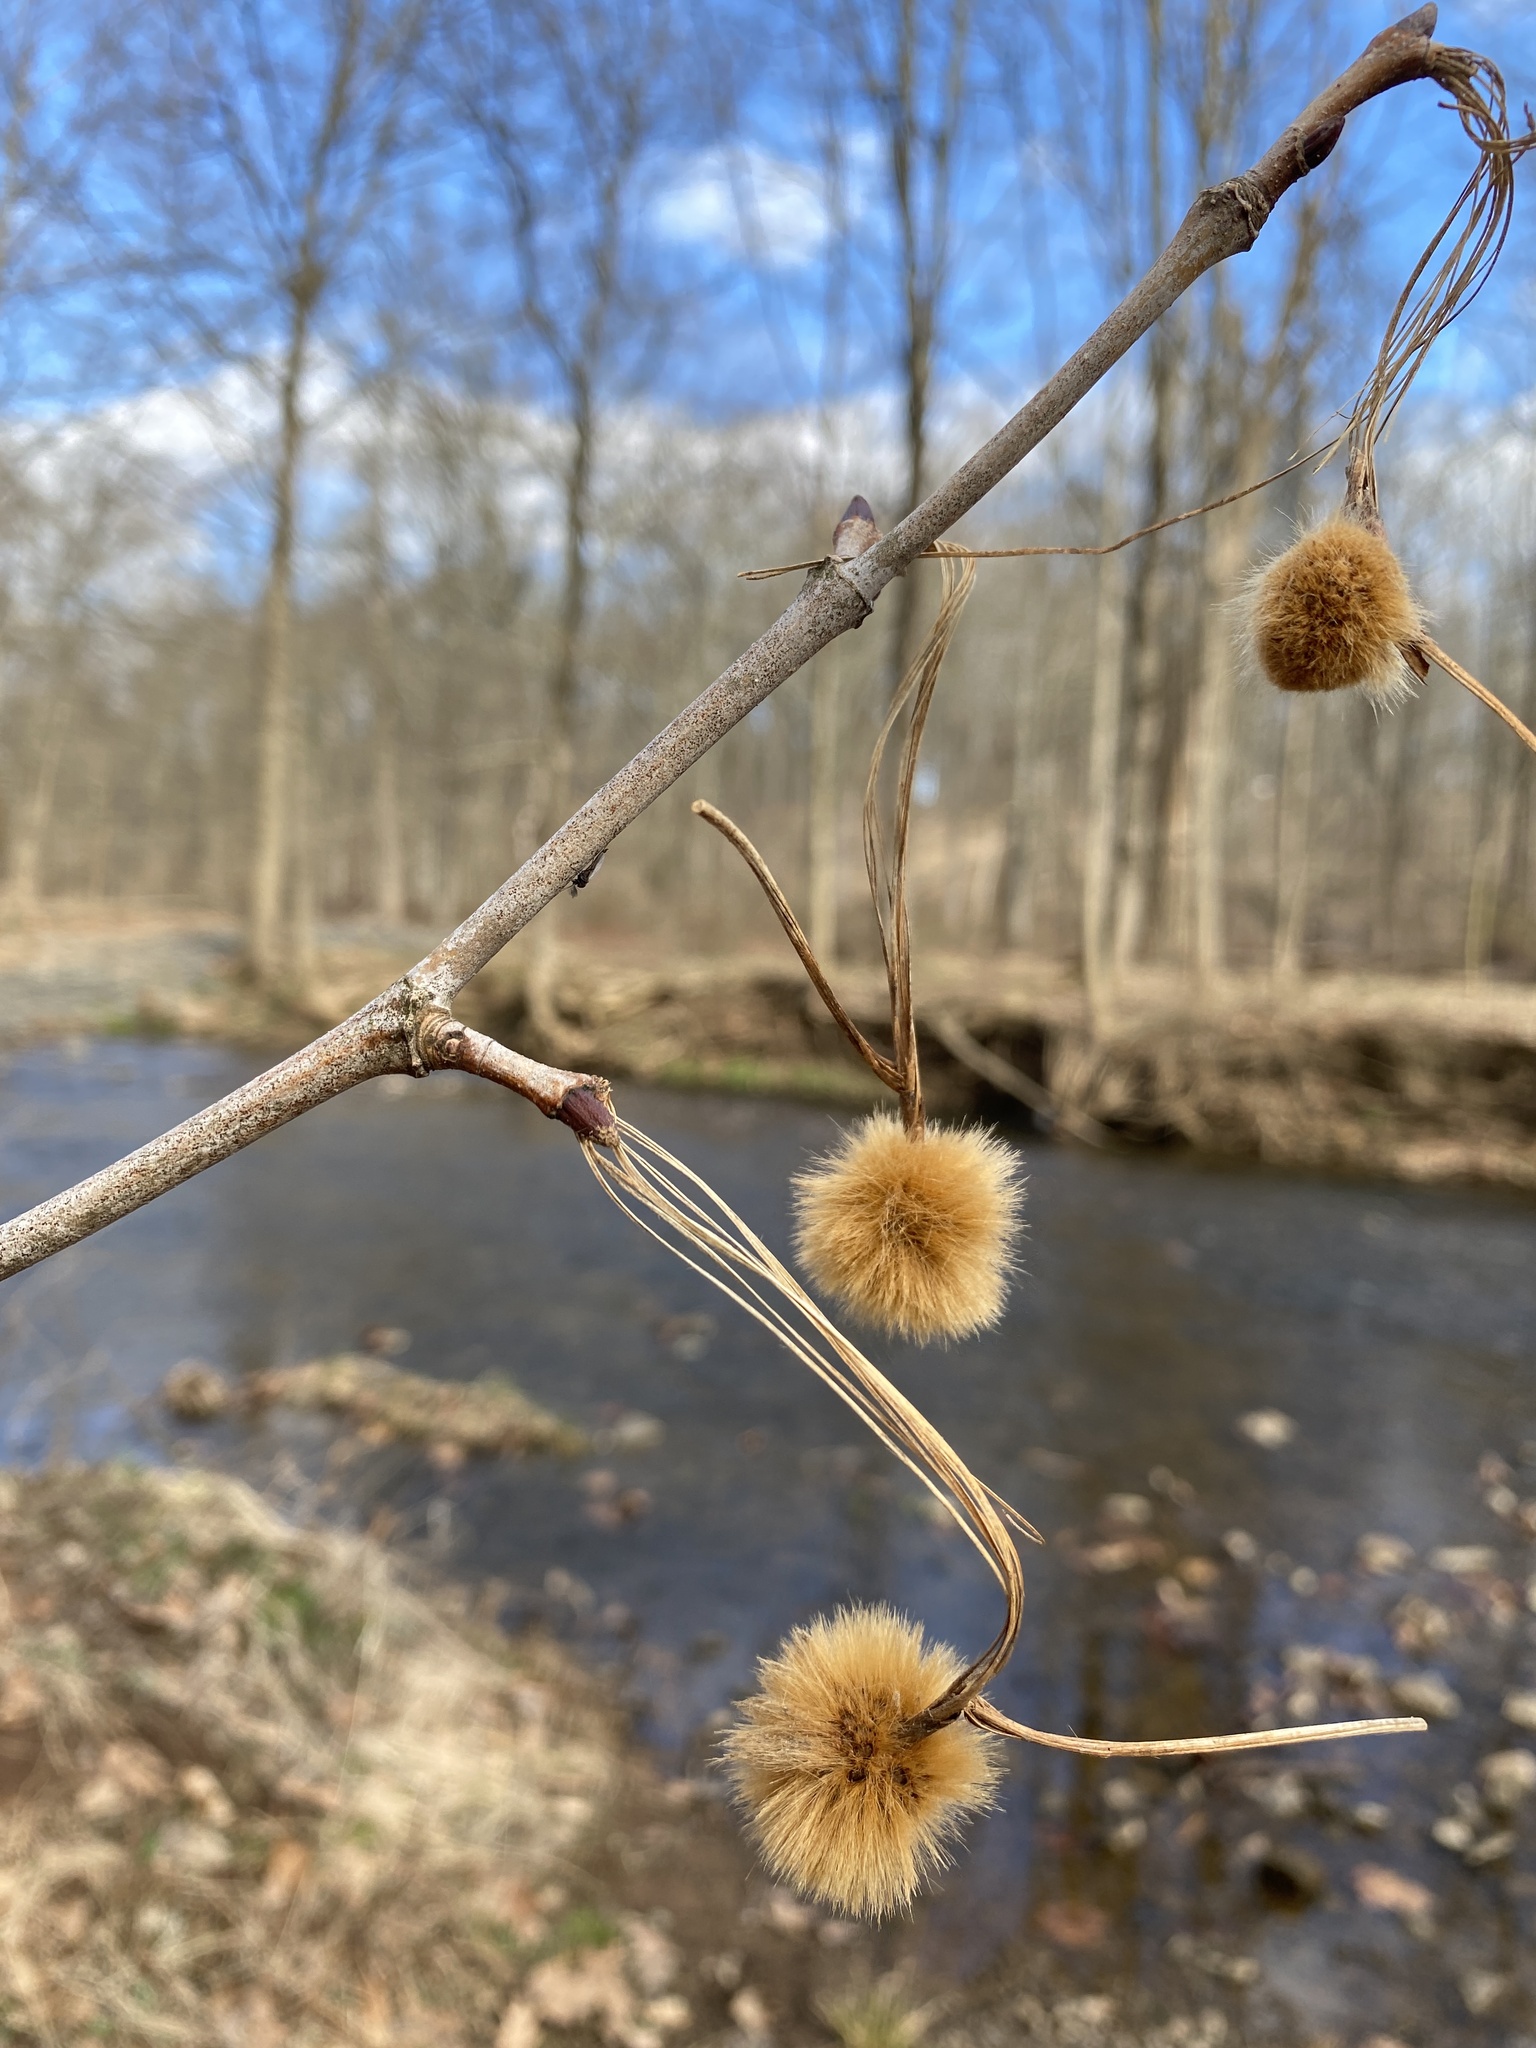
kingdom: Plantae
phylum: Tracheophyta
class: Magnoliopsida
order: Proteales
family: Platanaceae
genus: Platanus
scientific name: Platanus occidentalis
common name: American sycamore
